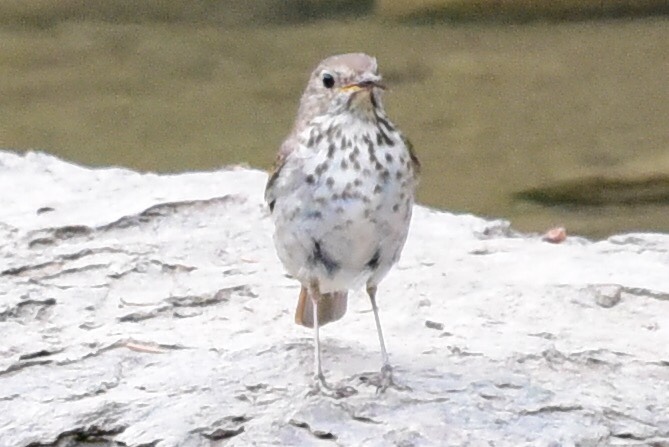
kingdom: Animalia
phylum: Chordata
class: Aves
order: Passeriformes
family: Turdidae
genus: Catharus
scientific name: Catharus guttatus
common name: Hermit thrush
